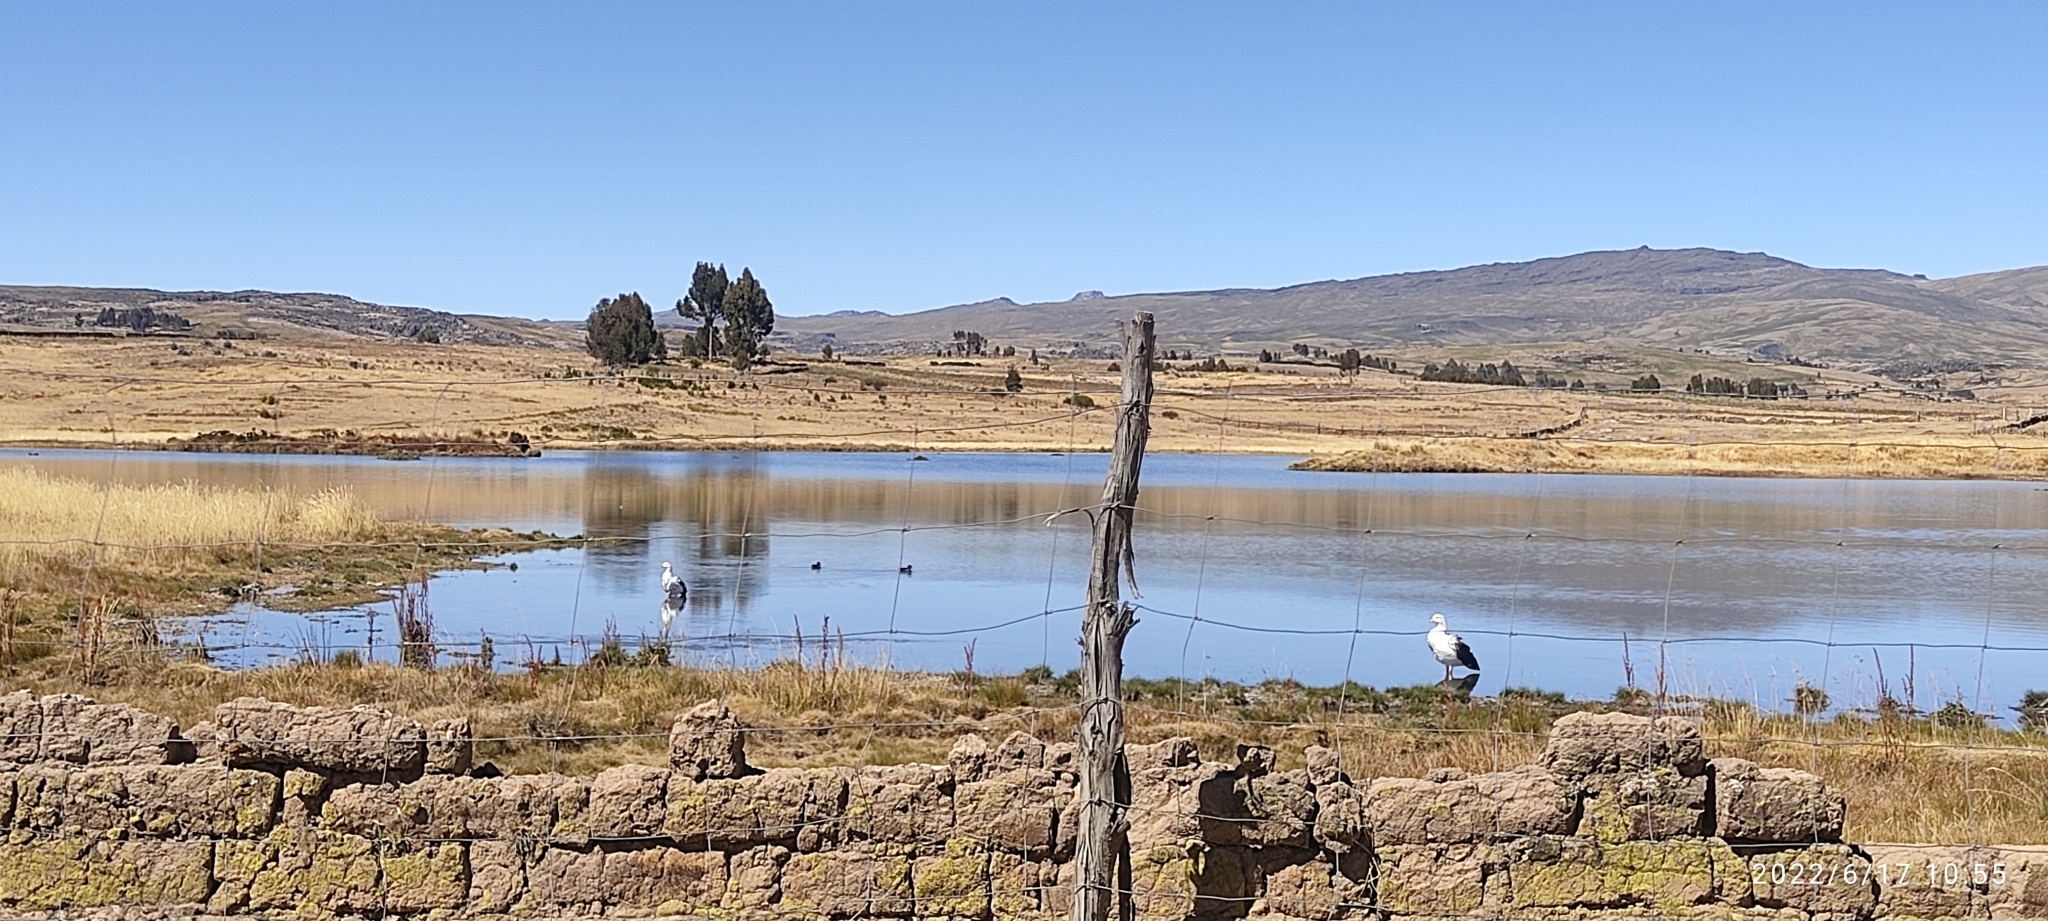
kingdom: Animalia
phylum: Chordata
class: Aves
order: Anseriformes
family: Anatidae
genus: Chloephaga
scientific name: Chloephaga melanoptera
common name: Andean goose
